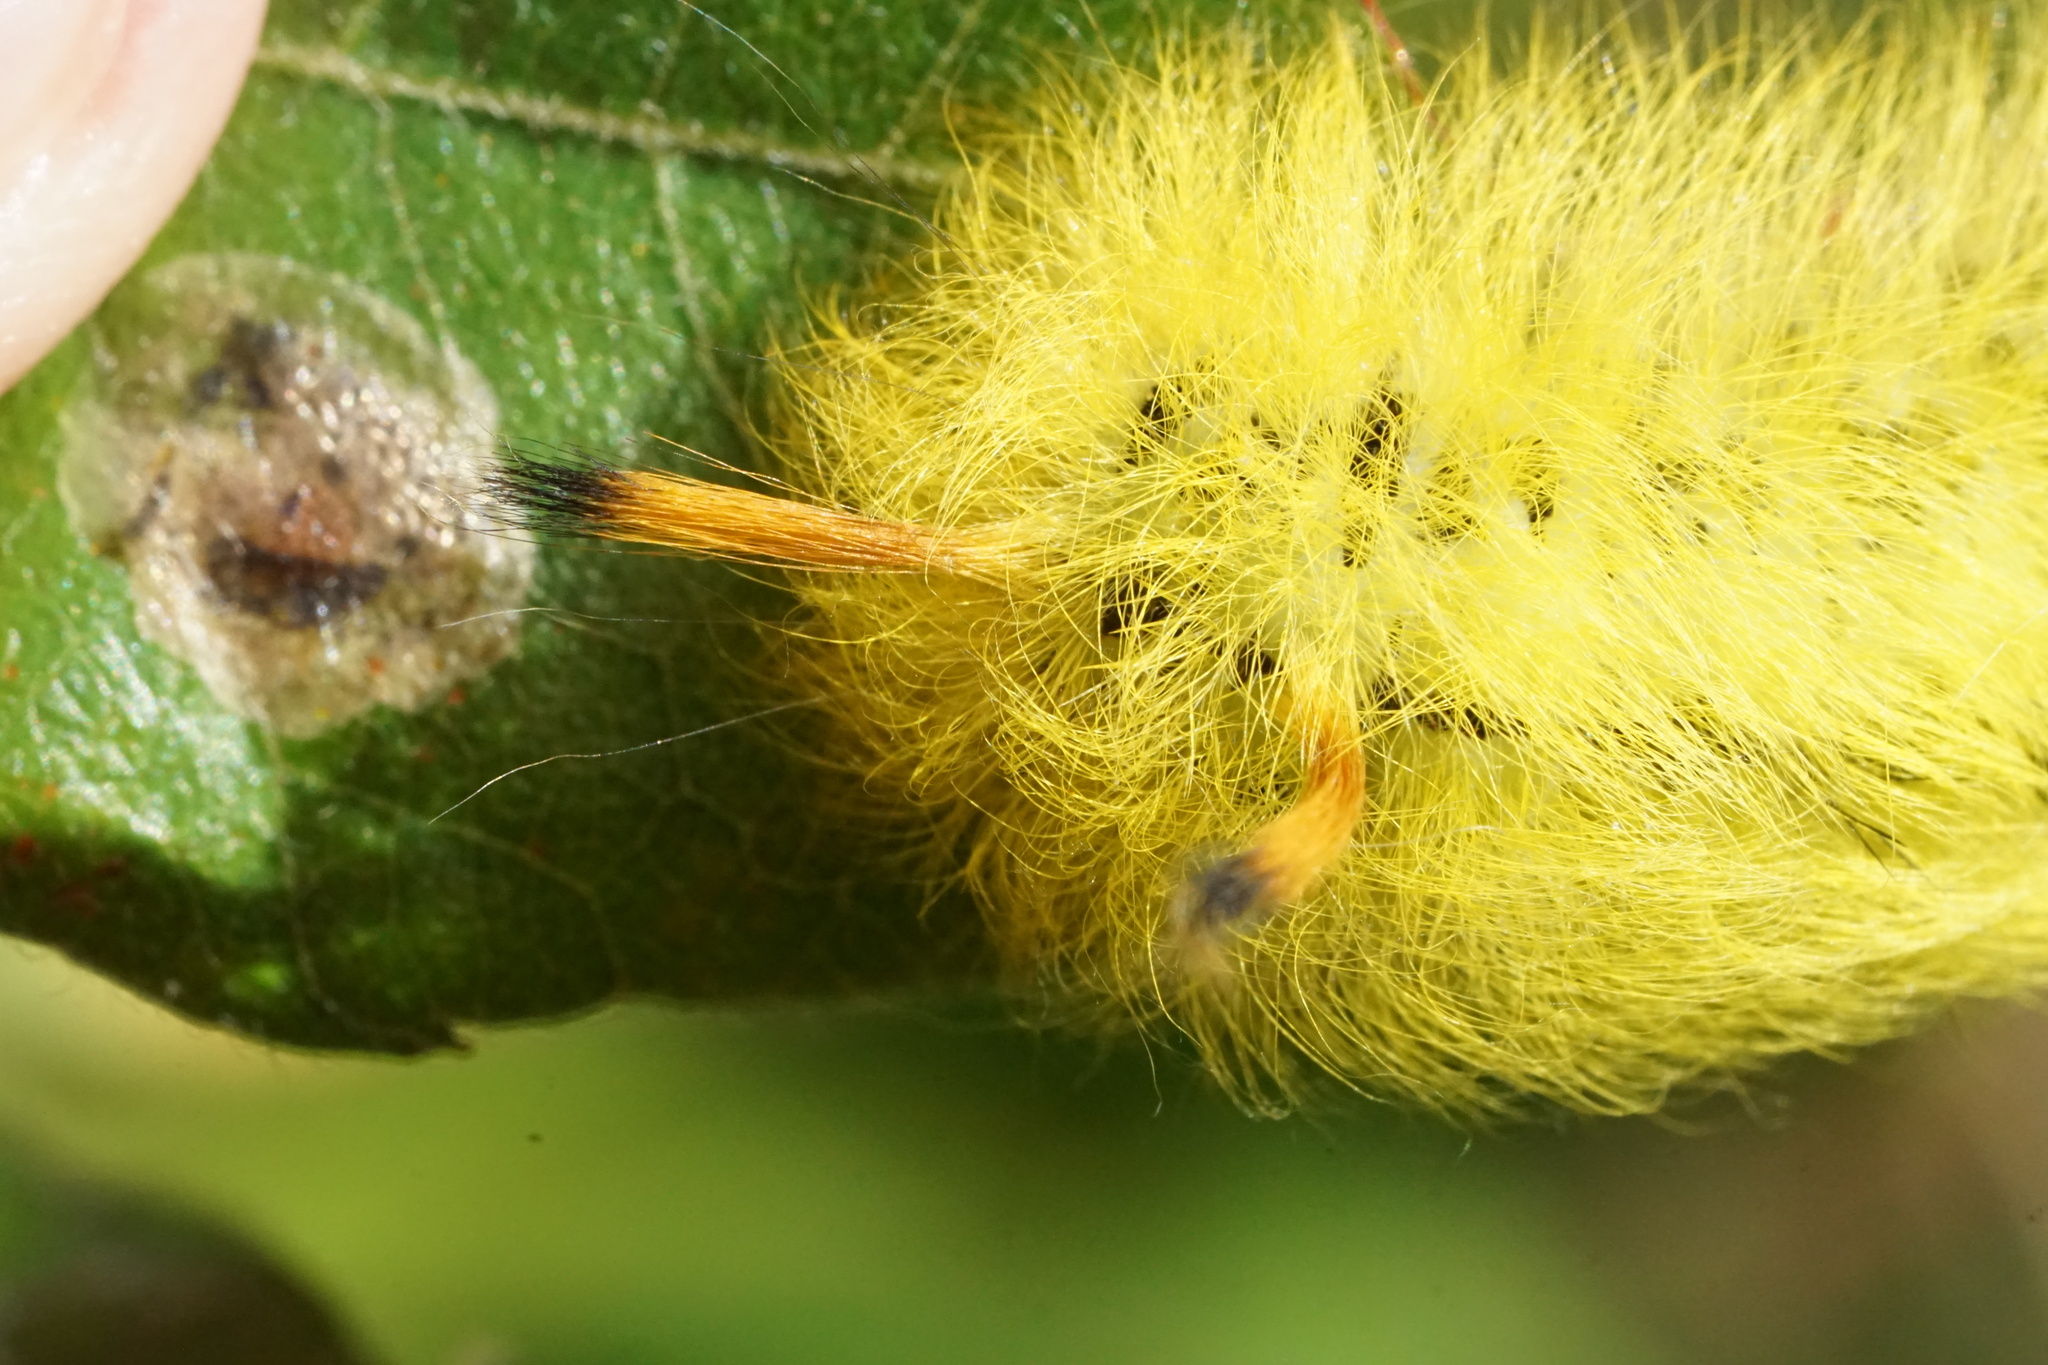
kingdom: Animalia
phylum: Arthropoda
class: Insecta
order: Lepidoptera
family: Apatelodidae
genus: Hygrochroa
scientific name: Hygrochroa Apatelodes torrefacta
